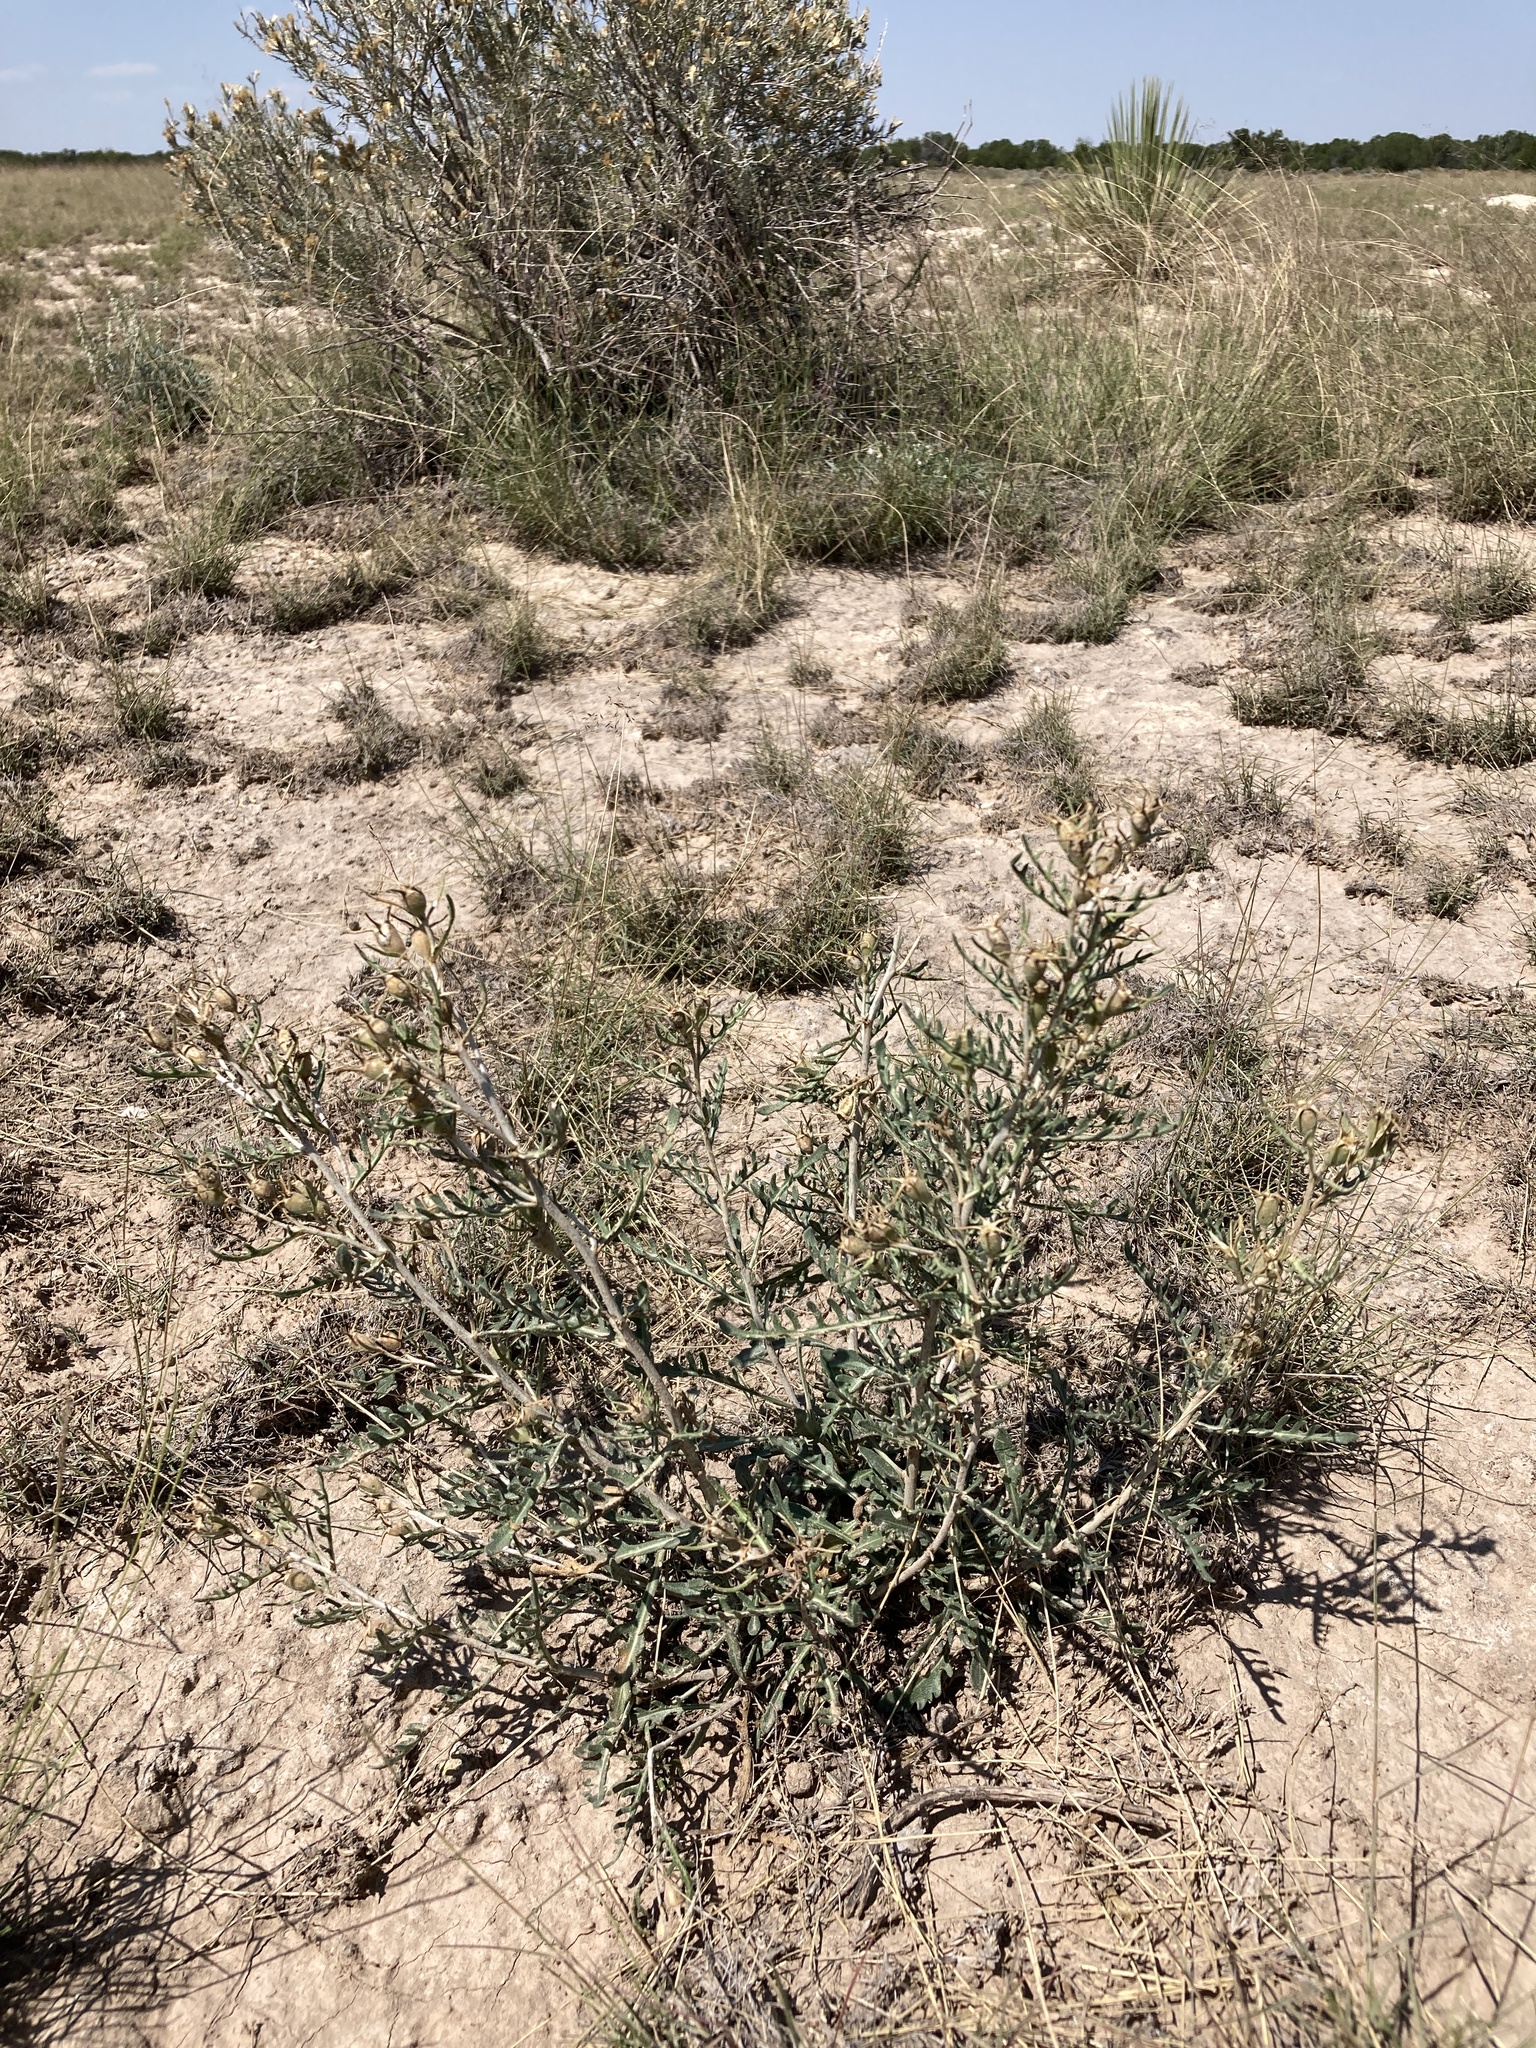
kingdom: Plantae
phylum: Tracheophyta
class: Magnoliopsida
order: Cornales
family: Loasaceae
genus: Mentzelia
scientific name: Mentzelia humilis
